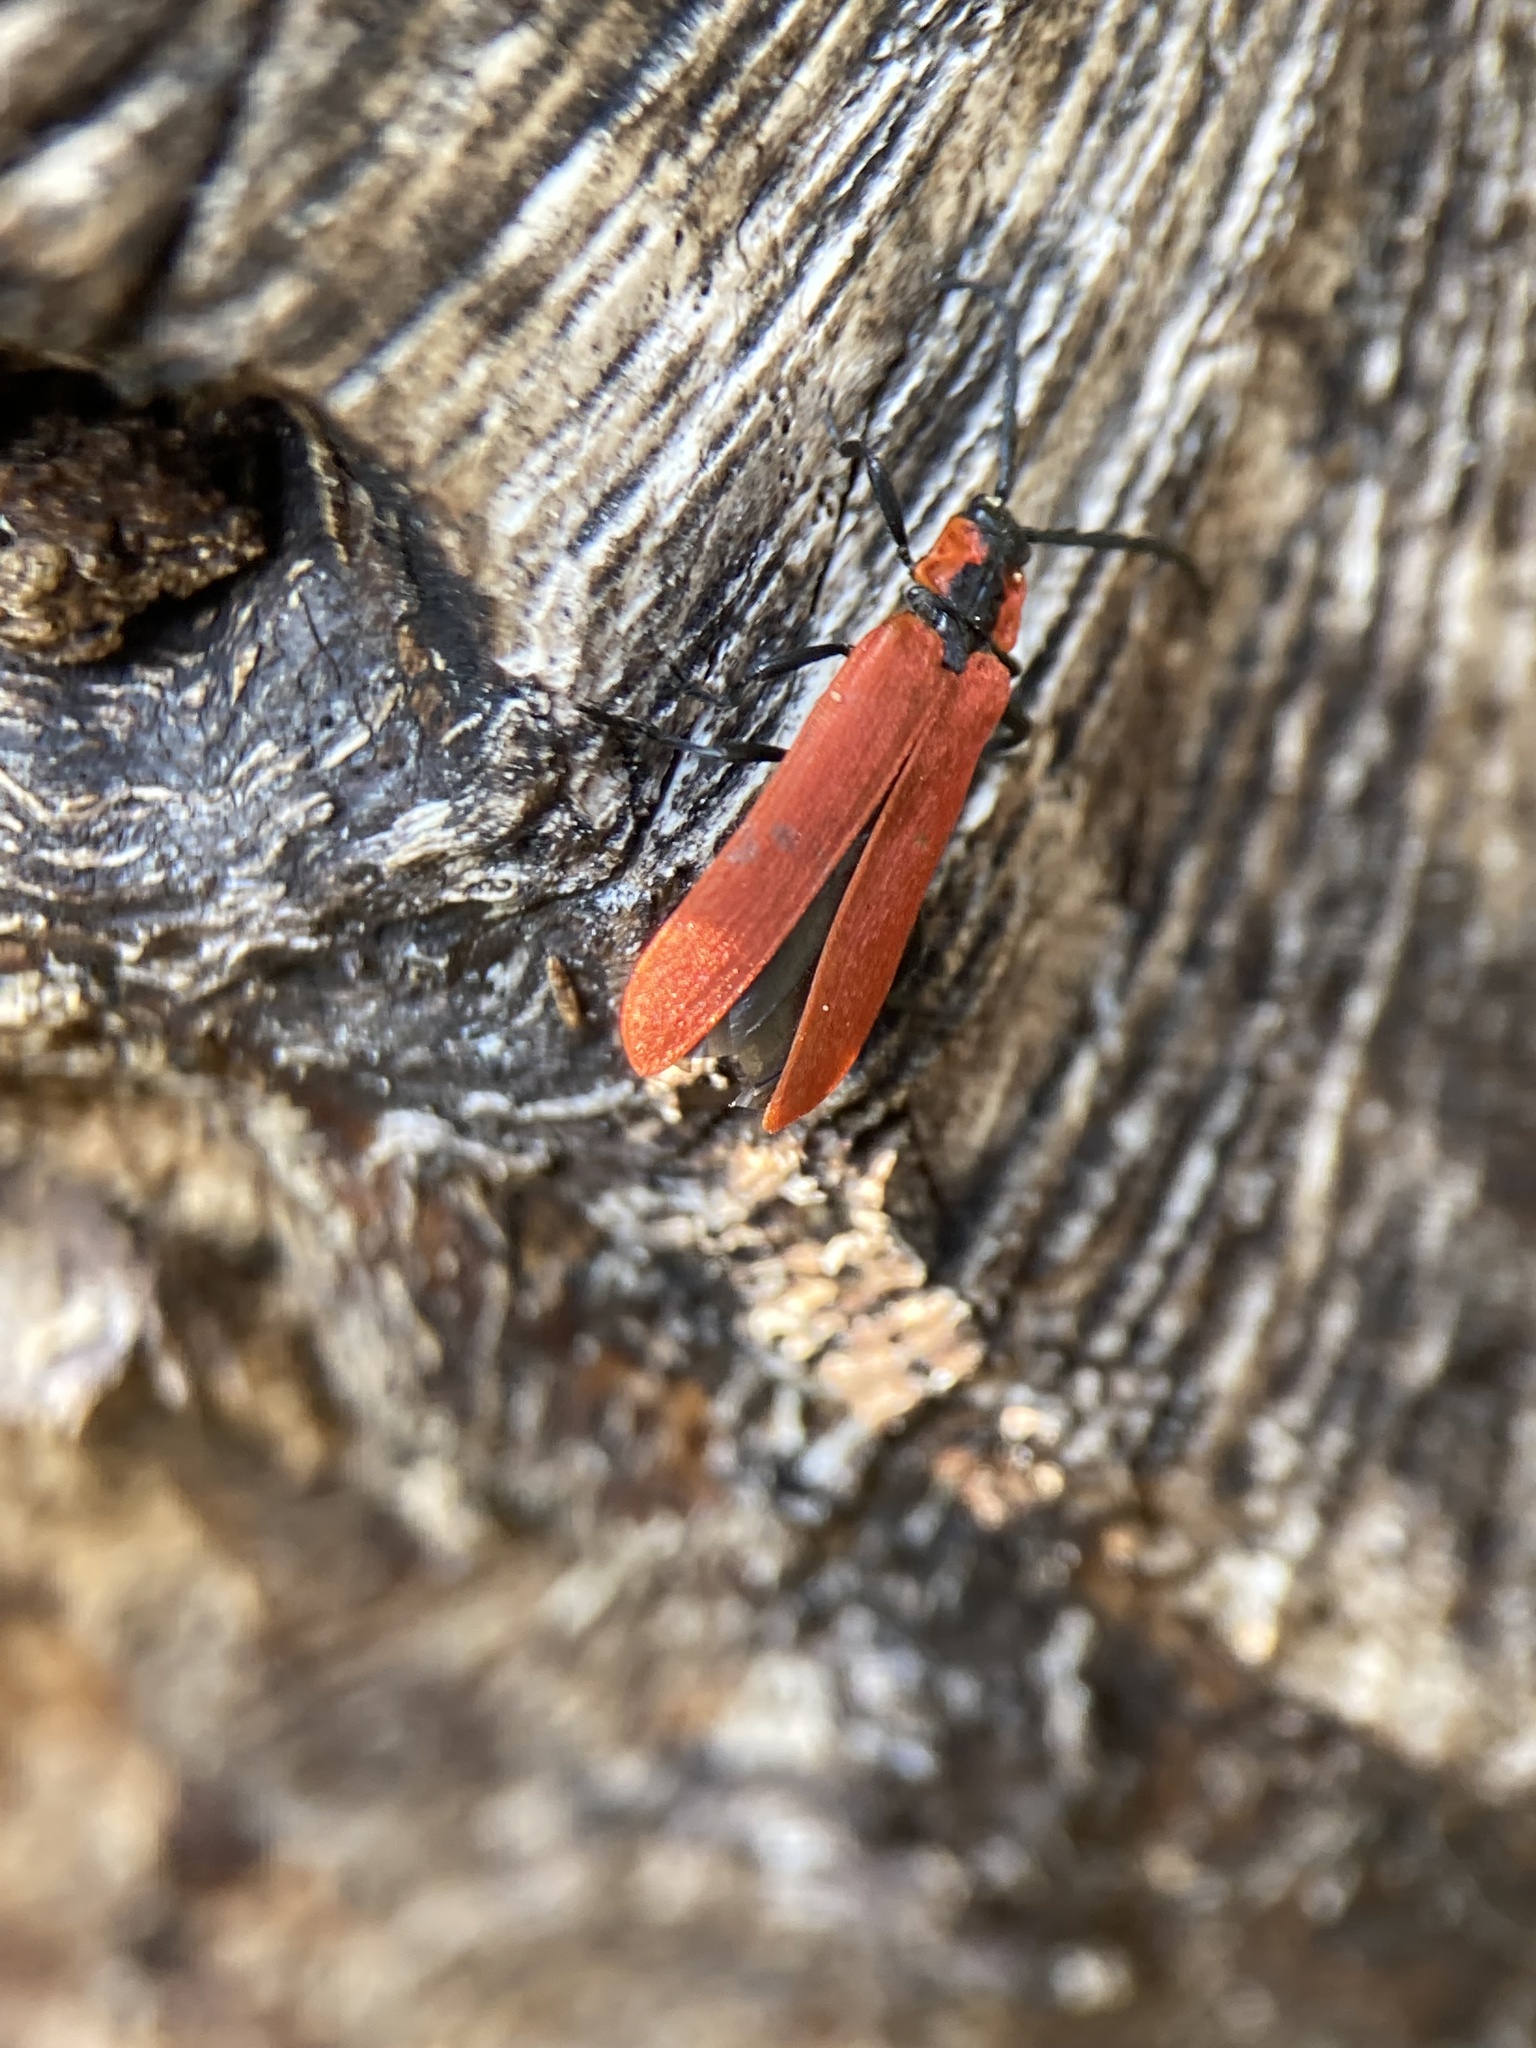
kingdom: Animalia
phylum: Arthropoda
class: Insecta
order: Coleoptera
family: Lycidae
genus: Lygistopterus
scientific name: Lygistopterus sanguineus
